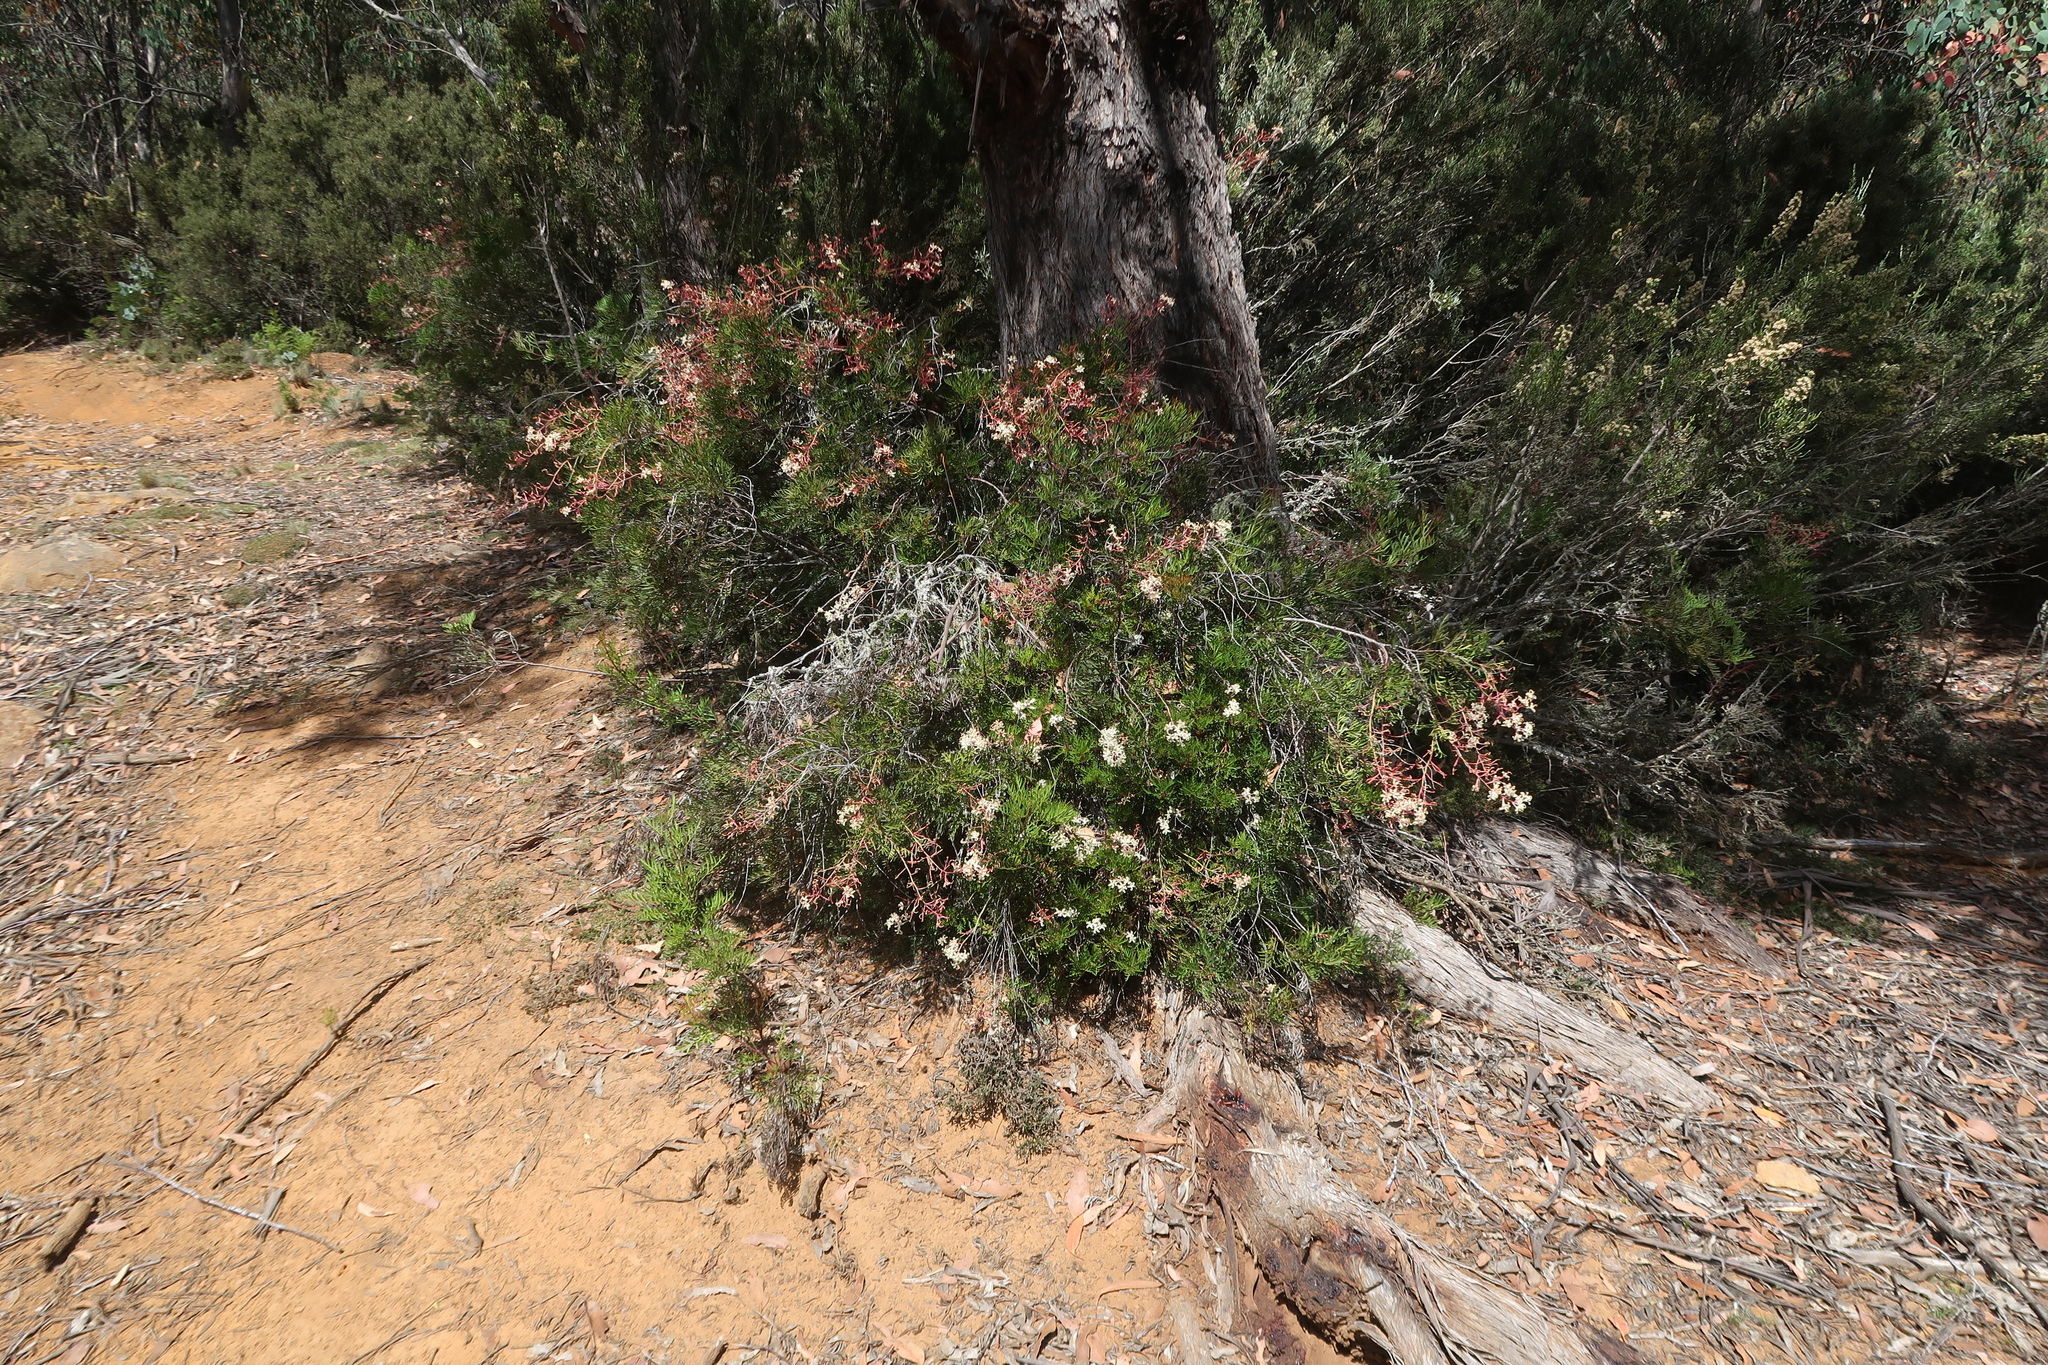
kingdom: Plantae
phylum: Tracheophyta
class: Magnoliopsida
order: Proteales
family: Proteaceae
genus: Lomatia
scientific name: Lomatia tinctoria
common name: Guitar plant
